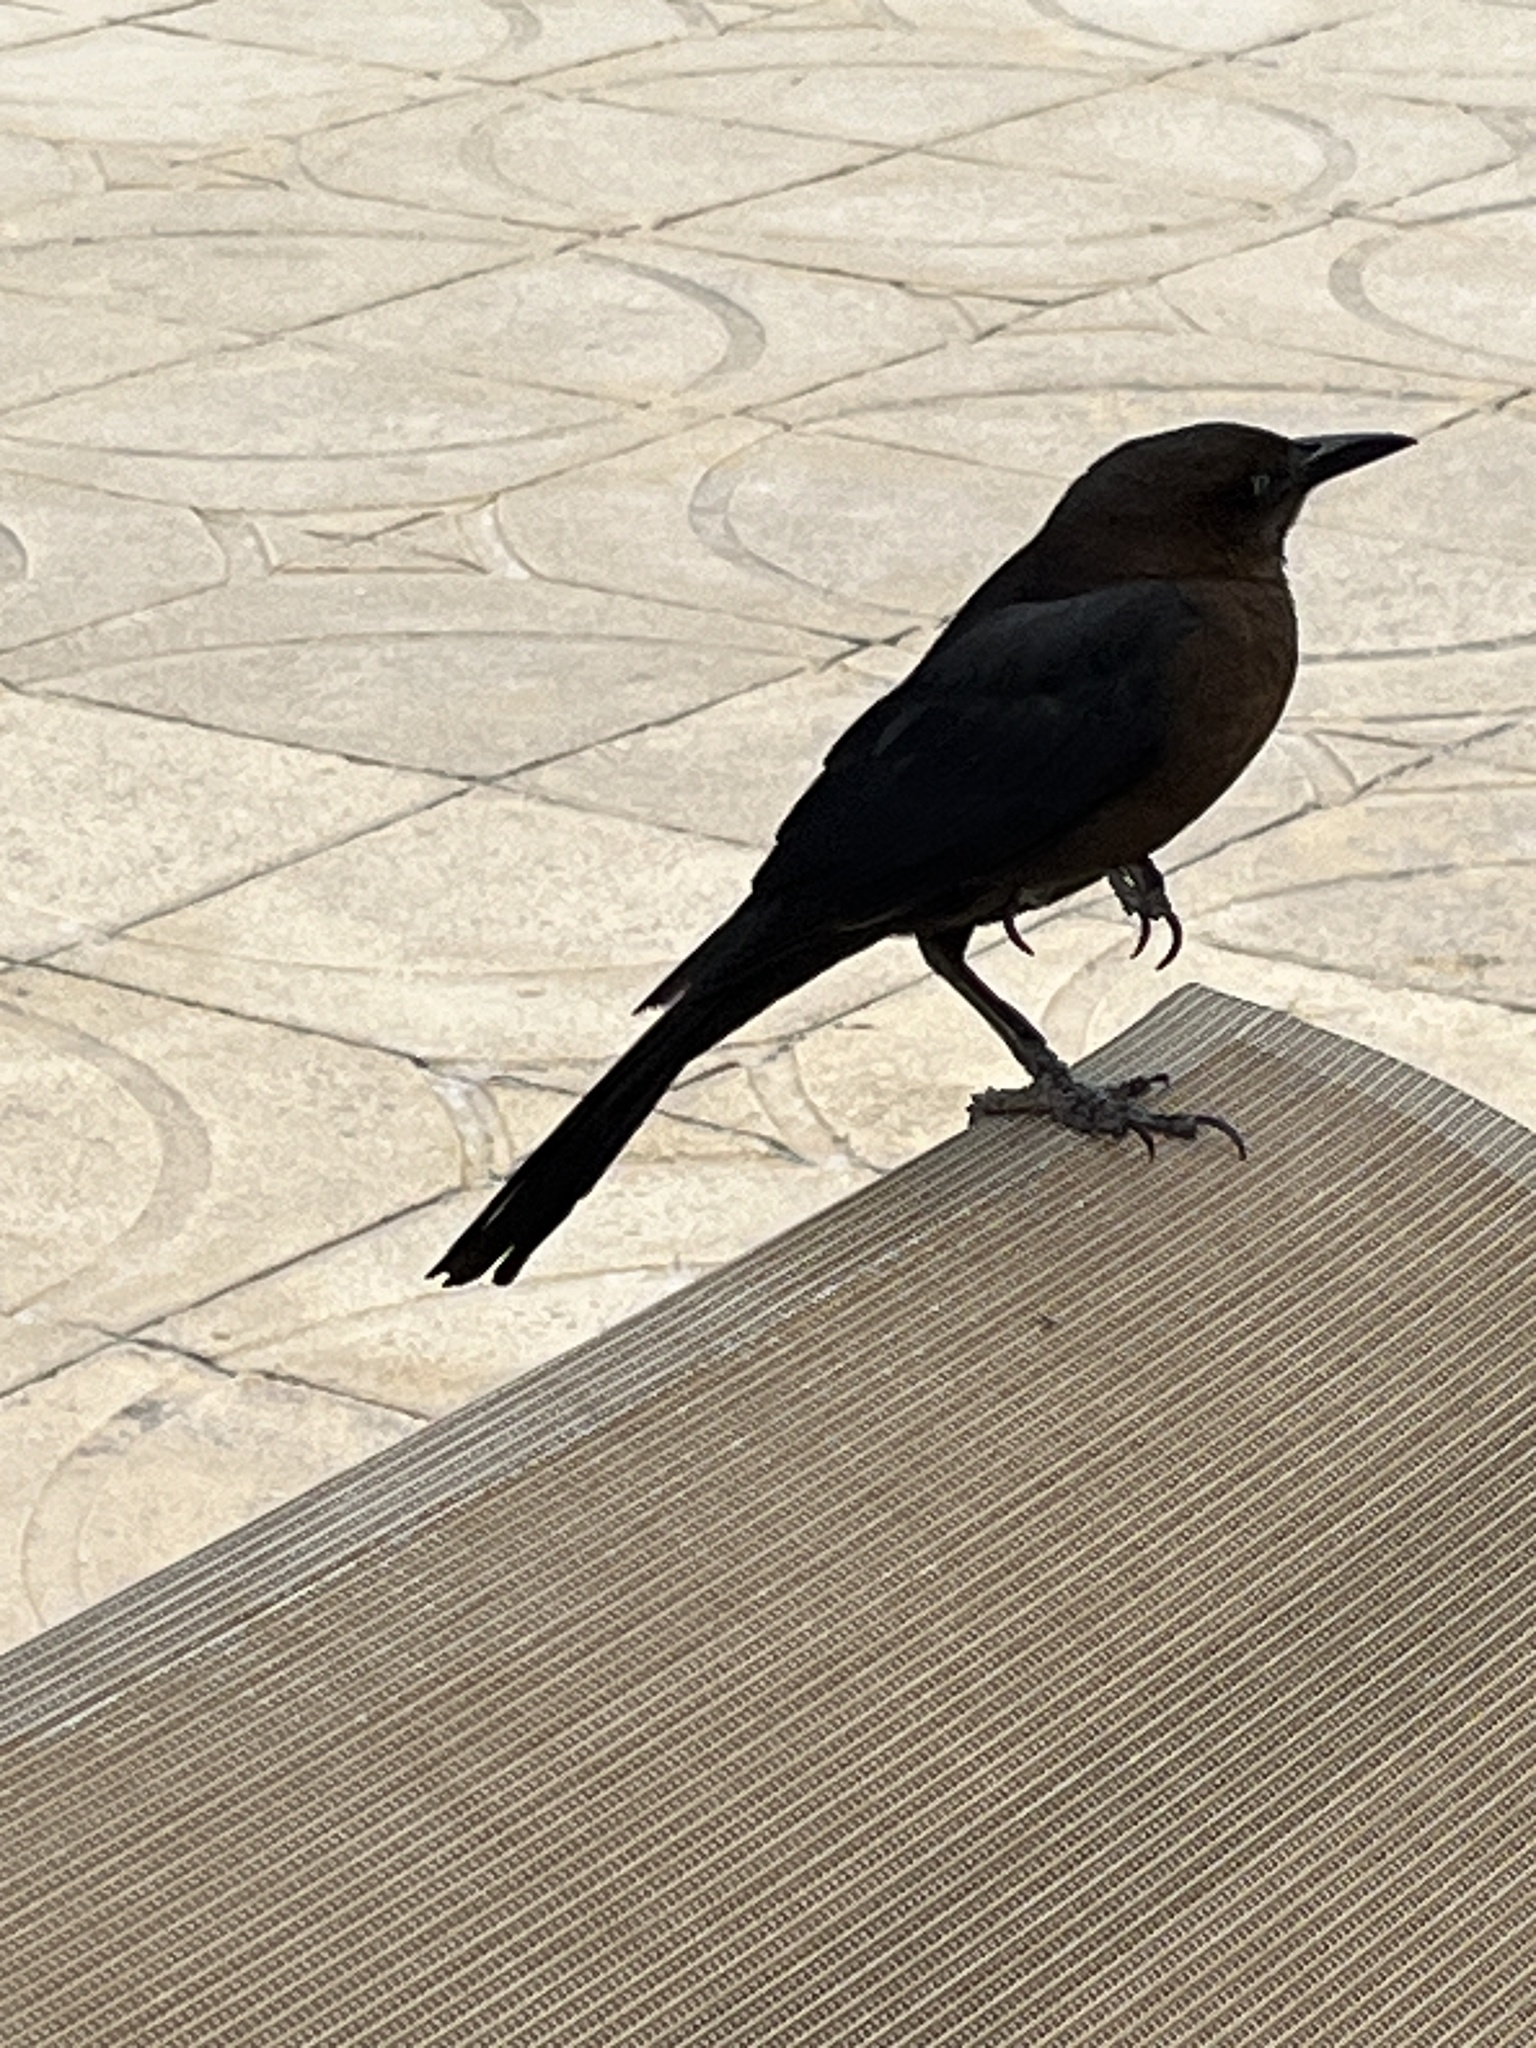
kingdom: Animalia
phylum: Chordata
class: Aves
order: Passeriformes
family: Icteridae
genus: Quiscalus
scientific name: Quiscalus mexicanus
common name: Great-tailed grackle
